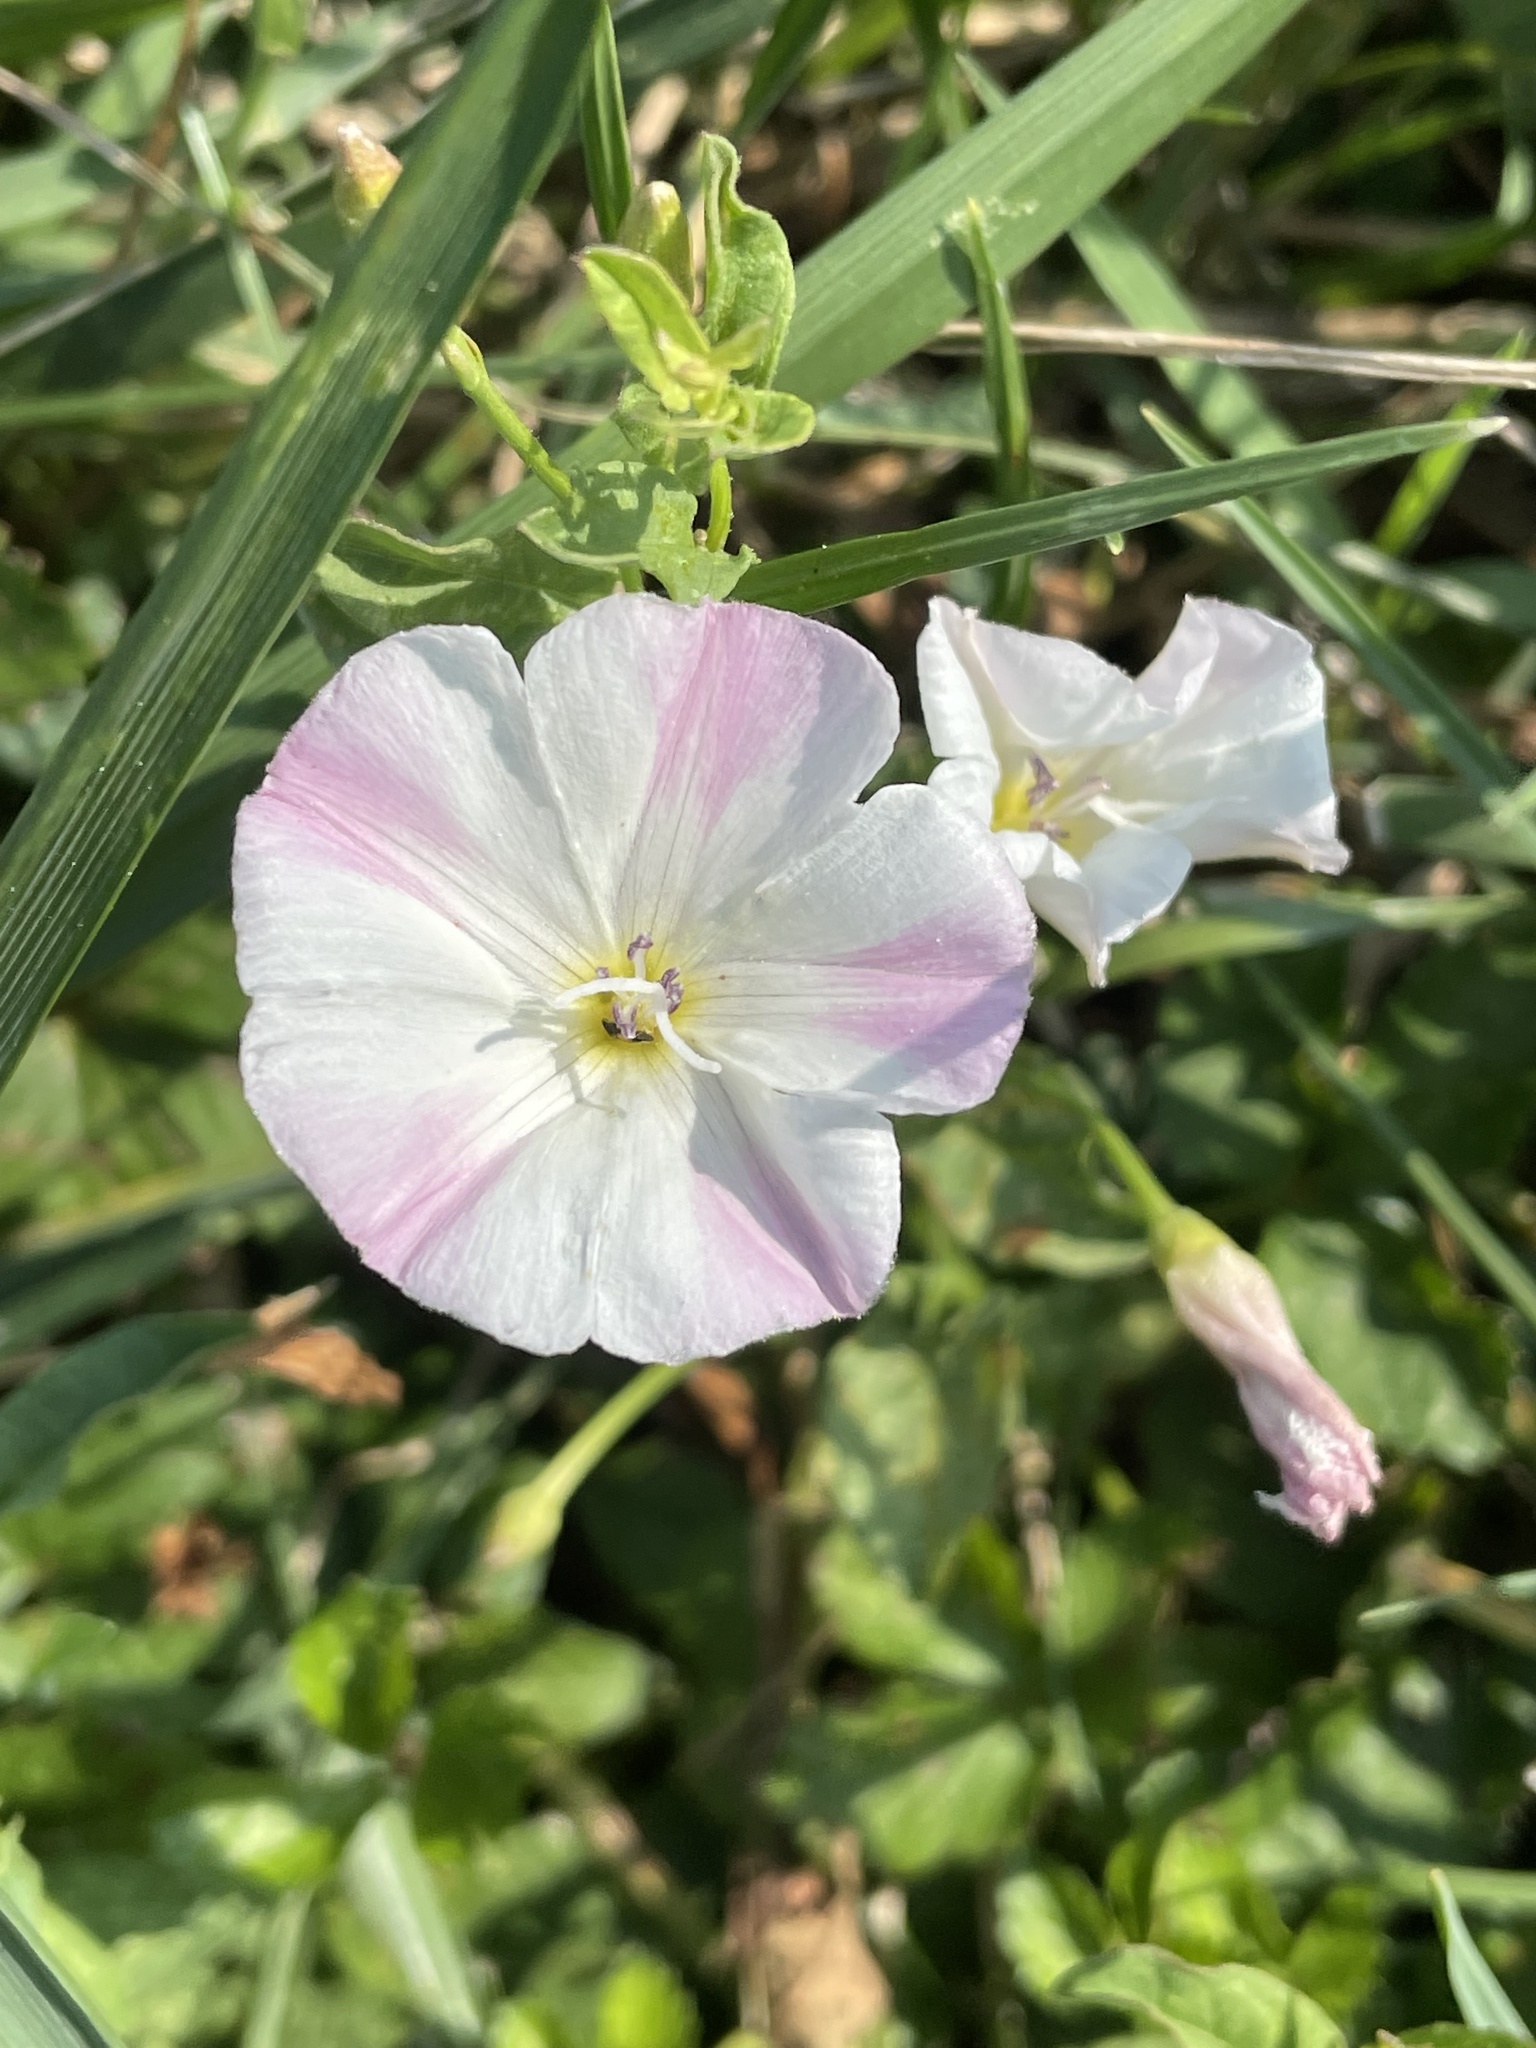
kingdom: Plantae
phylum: Tracheophyta
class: Magnoliopsida
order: Solanales
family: Convolvulaceae
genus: Convolvulus
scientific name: Convolvulus arvensis
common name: Field bindweed
